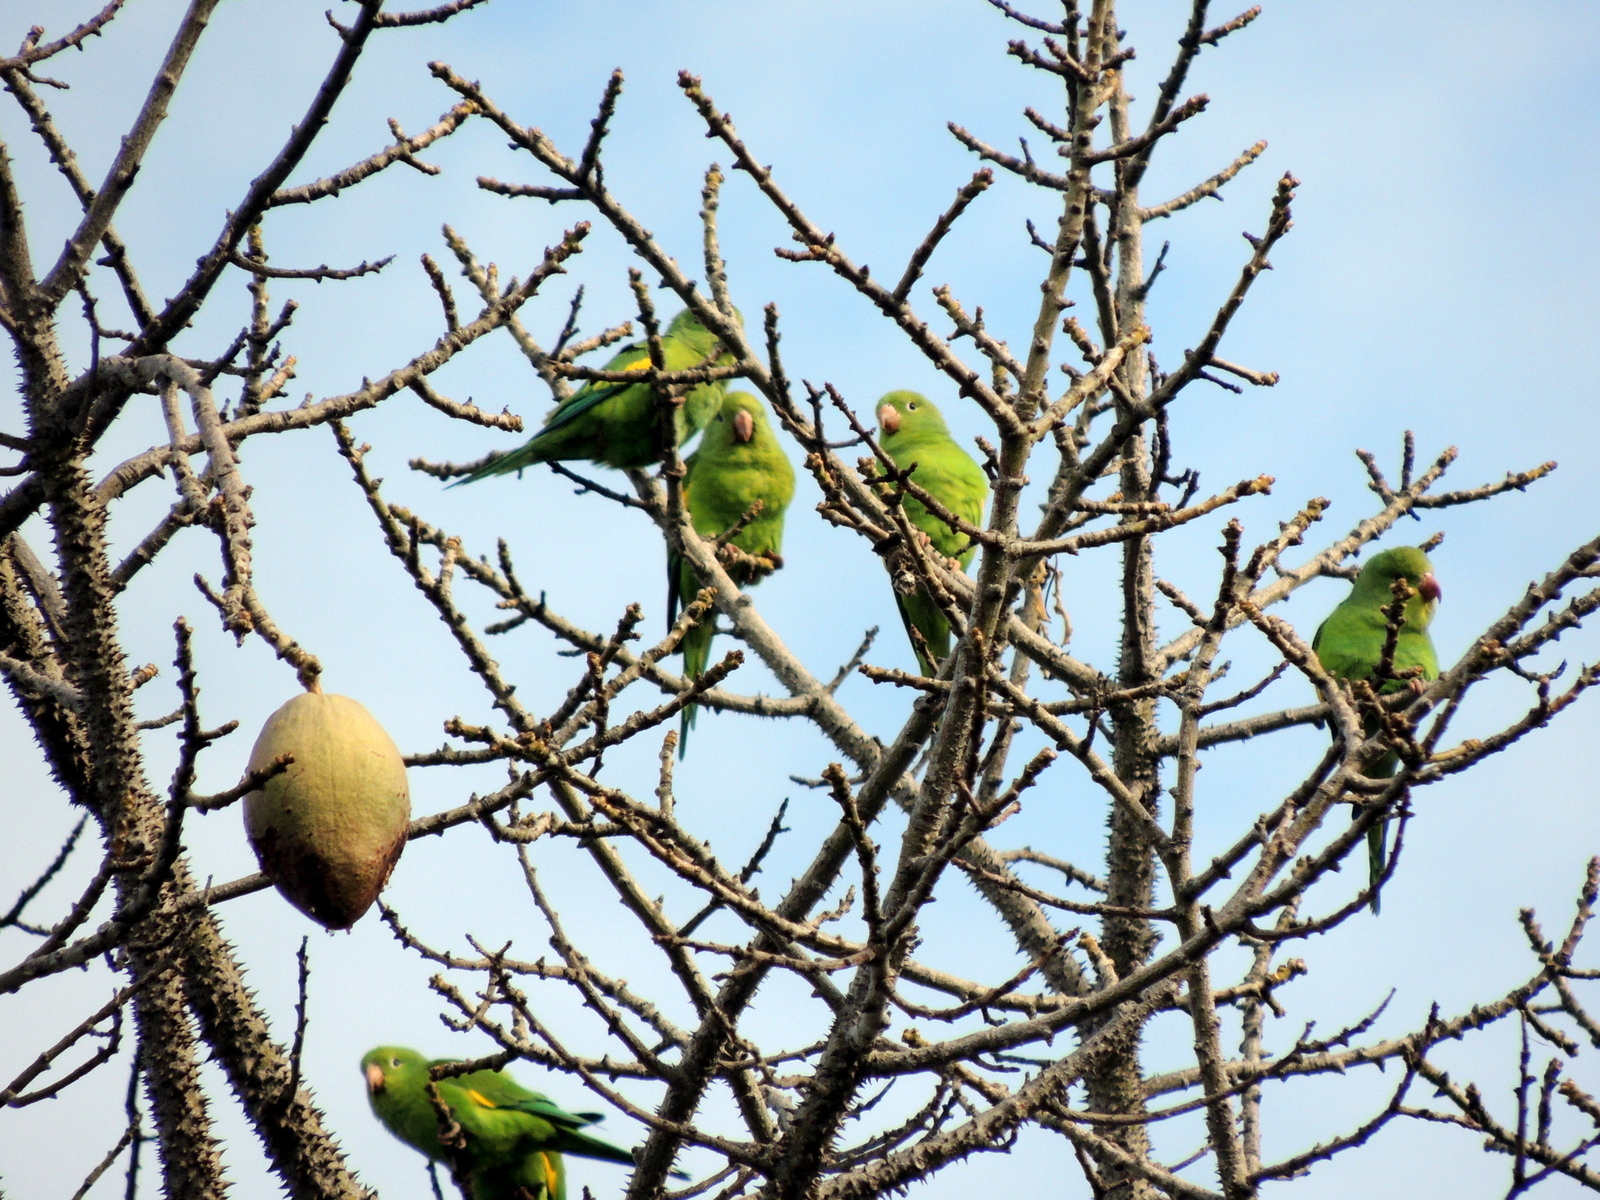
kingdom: Animalia
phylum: Chordata
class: Aves
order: Psittaciformes
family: Psittacidae
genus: Brotogeris
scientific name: Brotogeris chiriri
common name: Yellow-chevroned parakeet
